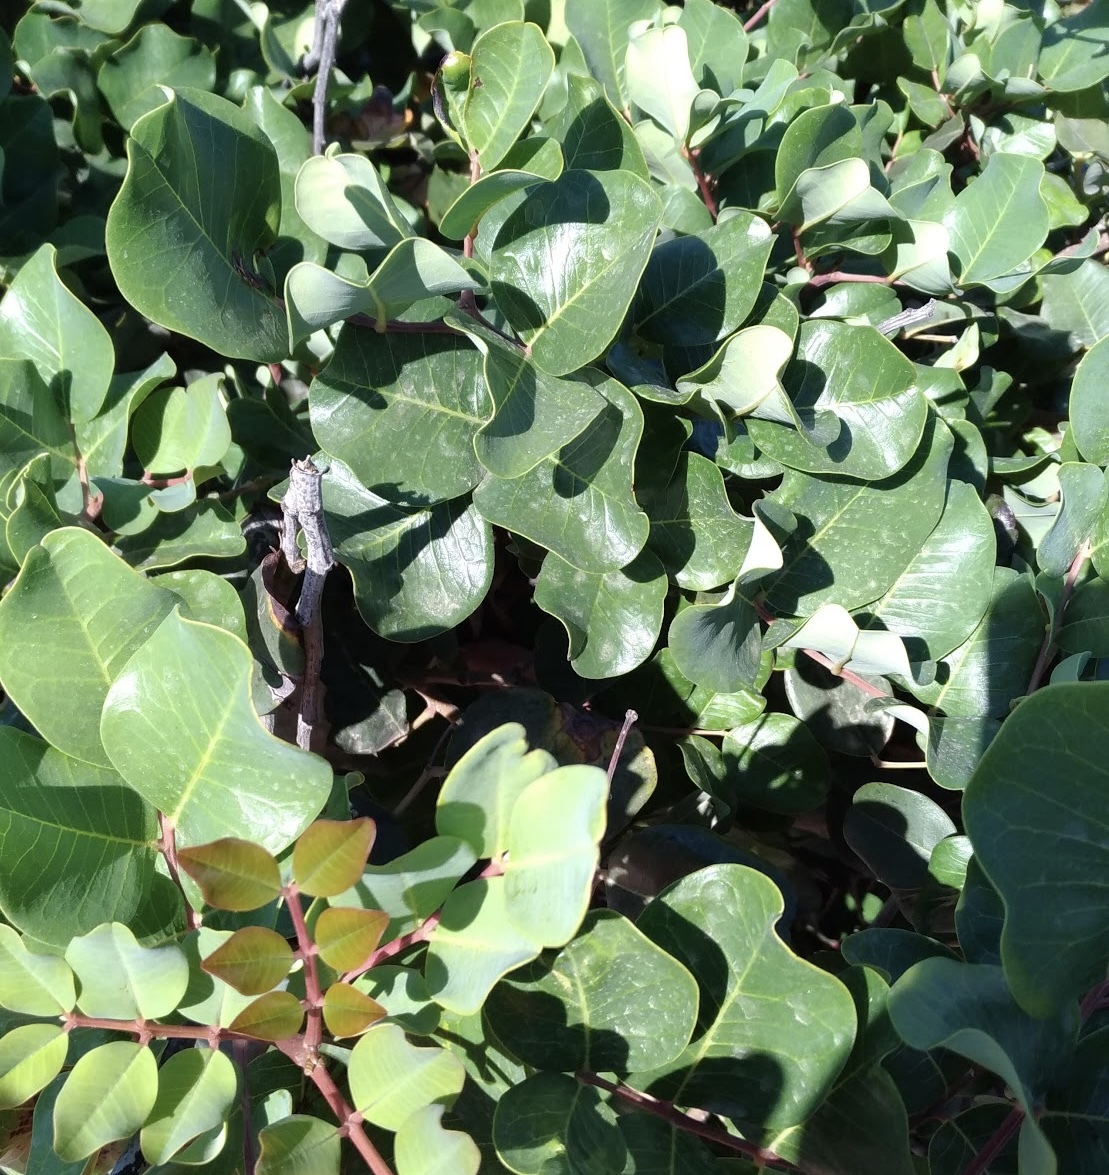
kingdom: Plantae
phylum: Tracheophyta
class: Magnoliopsida
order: Fabales
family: Fabaceae
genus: Ceratonia
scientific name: Ceratonia siliqua
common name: Carob
